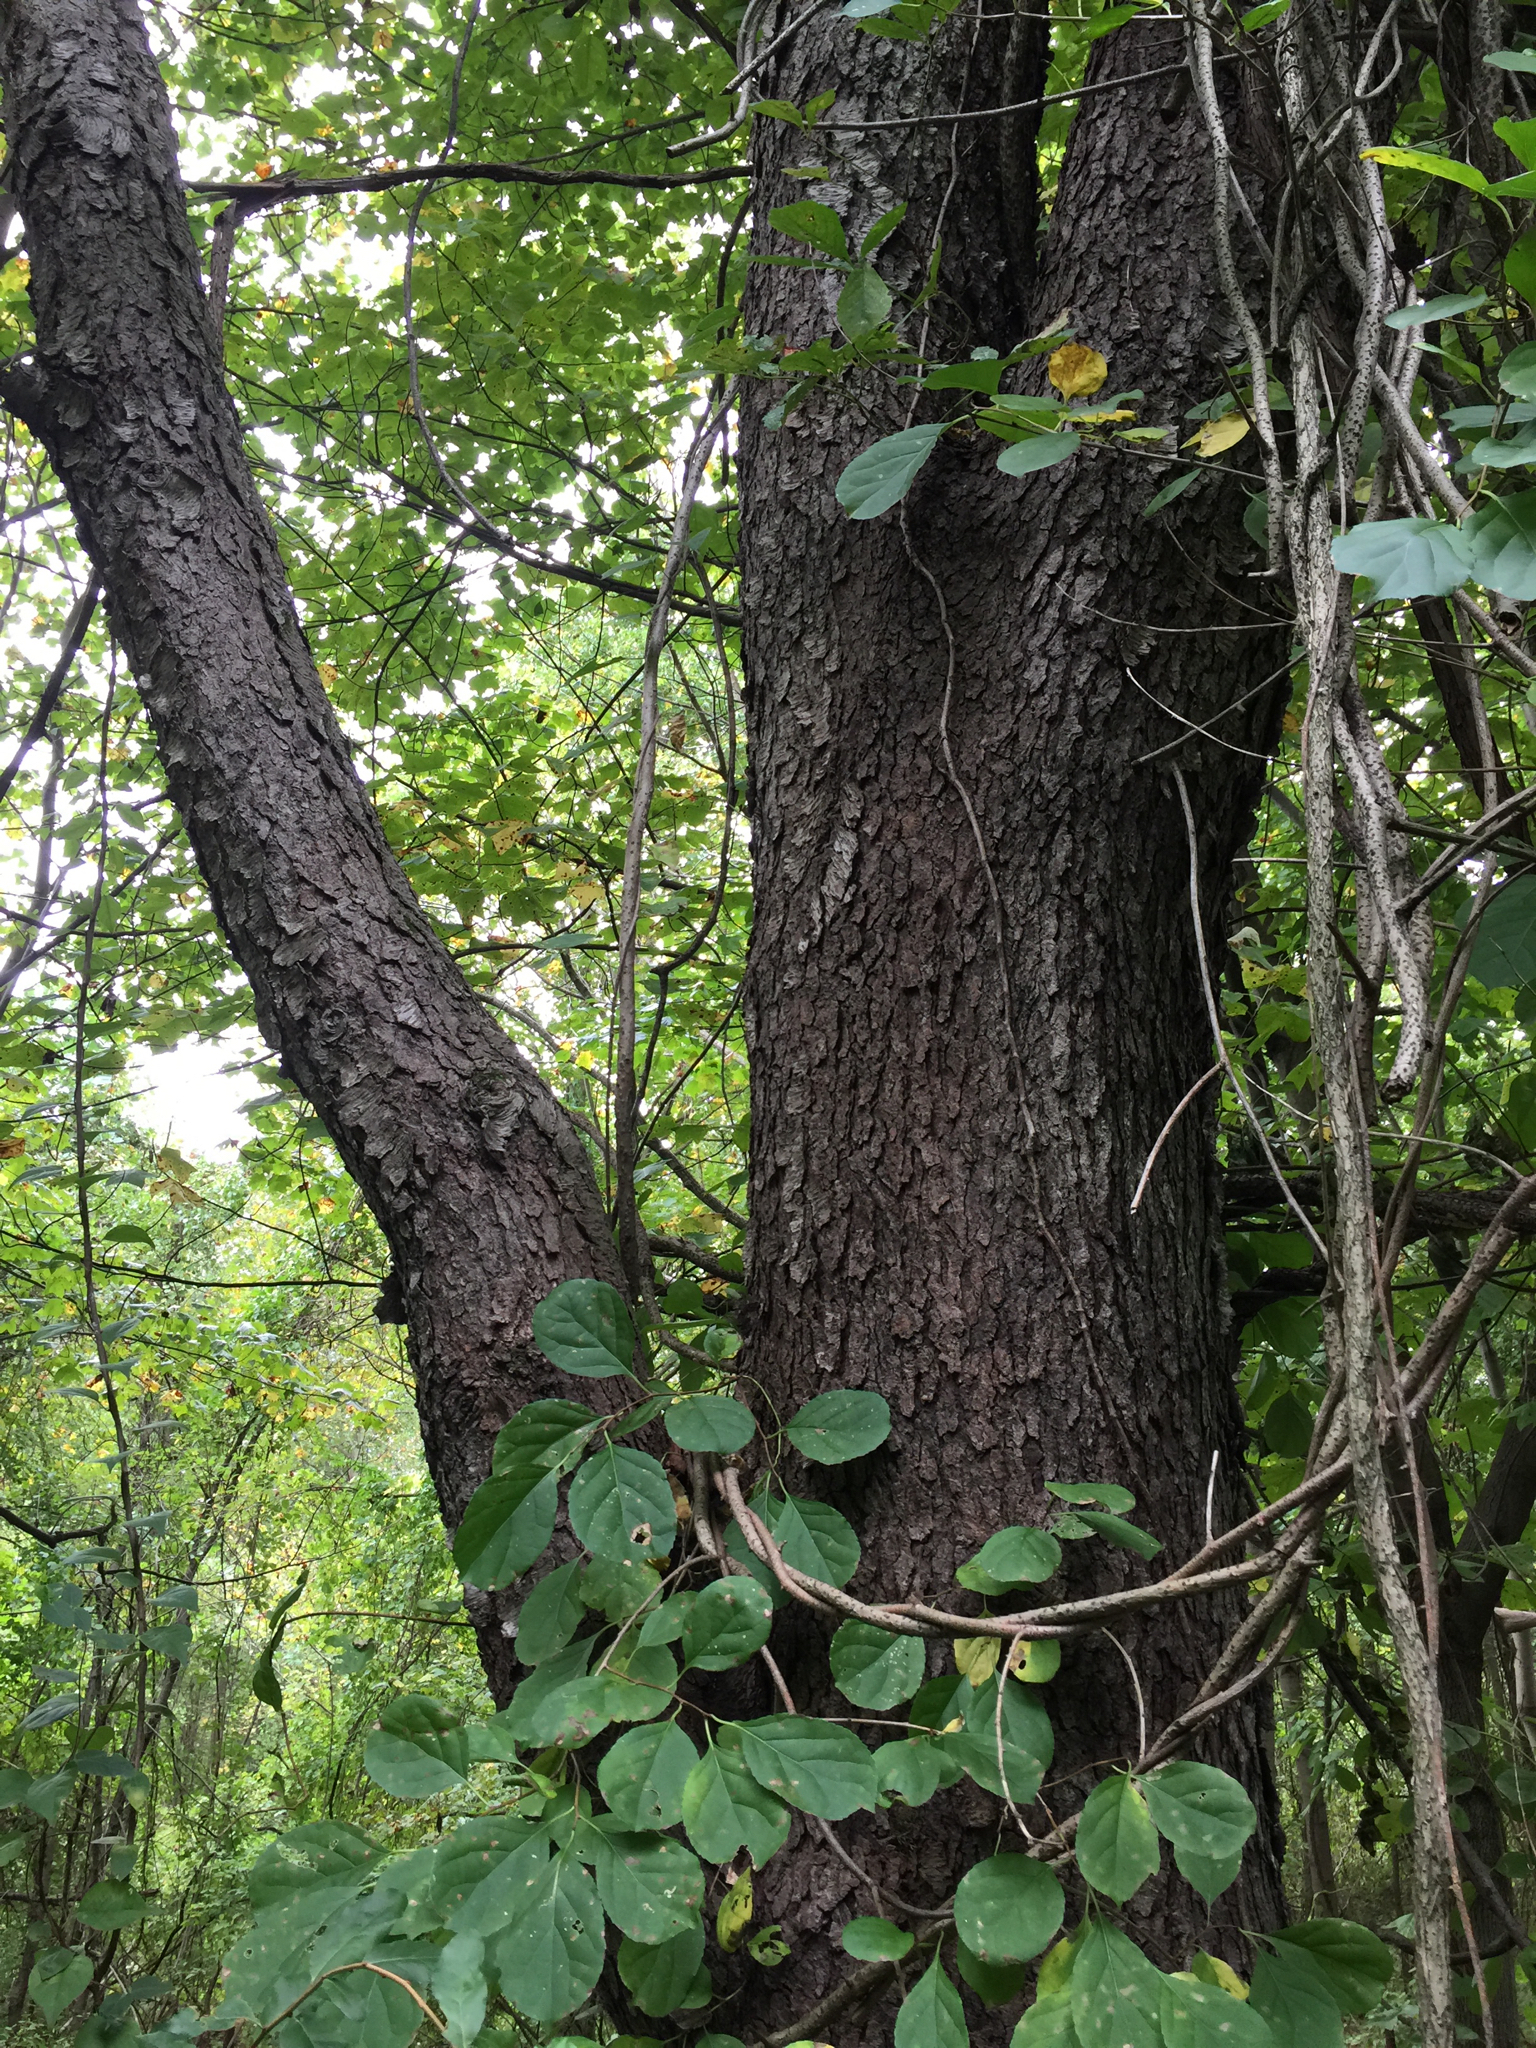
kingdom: Plantae
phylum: Tracheophyta
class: Magnoliopsida
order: Rosales
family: Rosaceae
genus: Prunus
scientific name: Prunus serotina
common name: Black cherry
